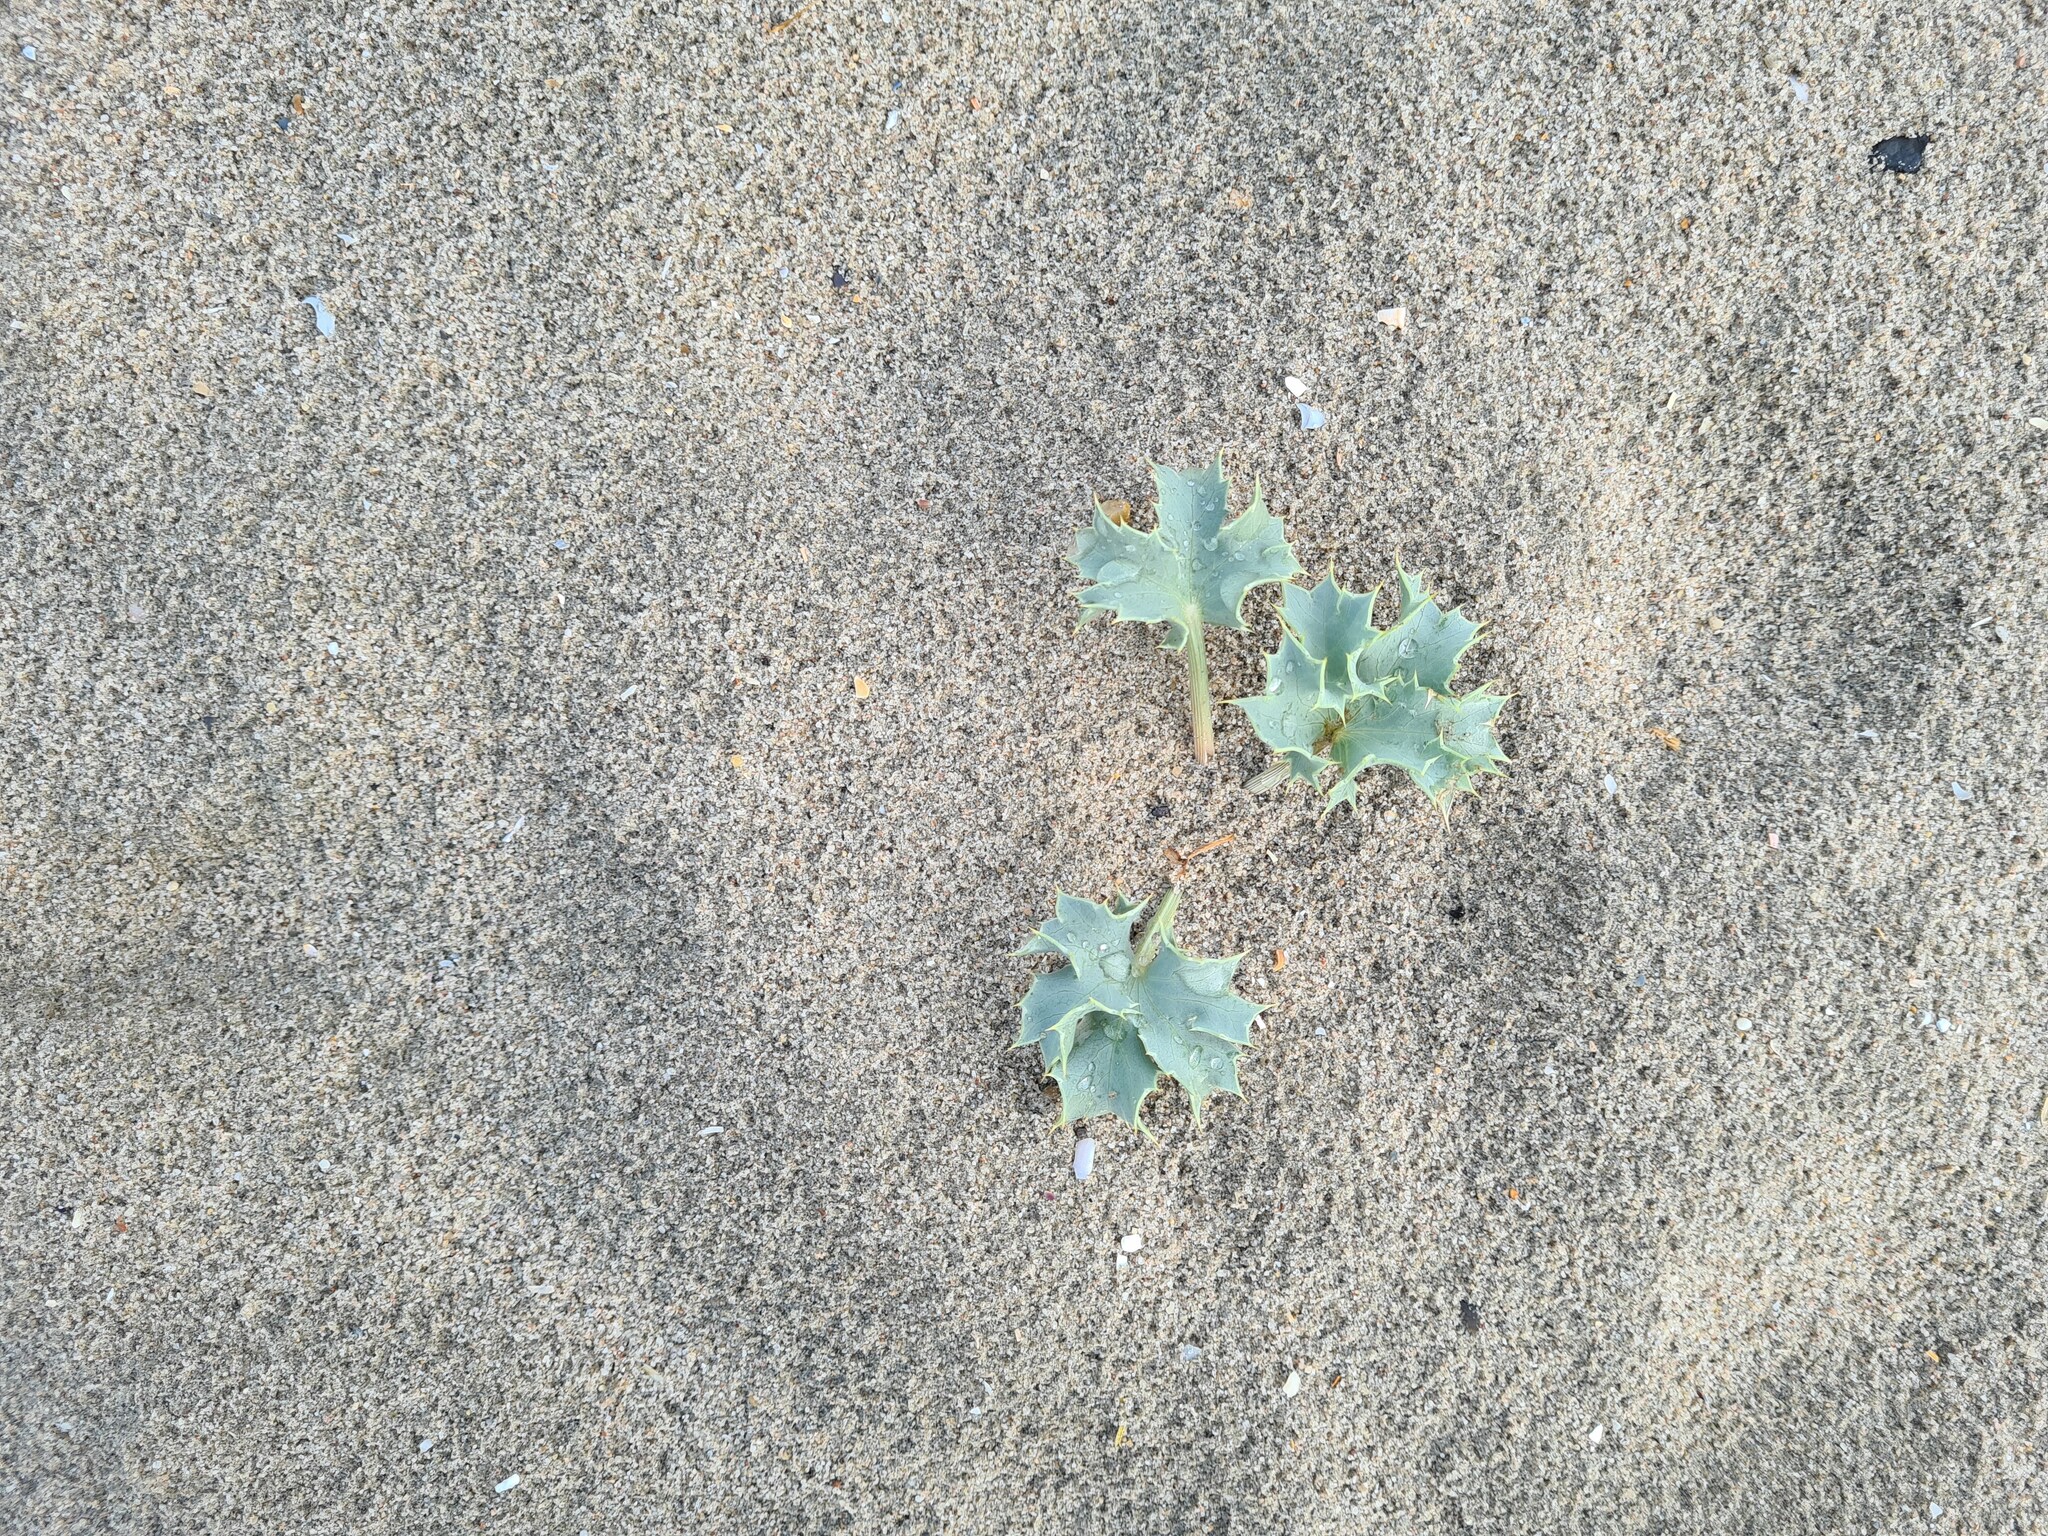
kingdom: Plantae
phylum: Tracheophyta
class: Magnoliopsida
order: Apiales
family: Apiaceae
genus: Eryngium
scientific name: Eryngium maritimum
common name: Sea-holly
